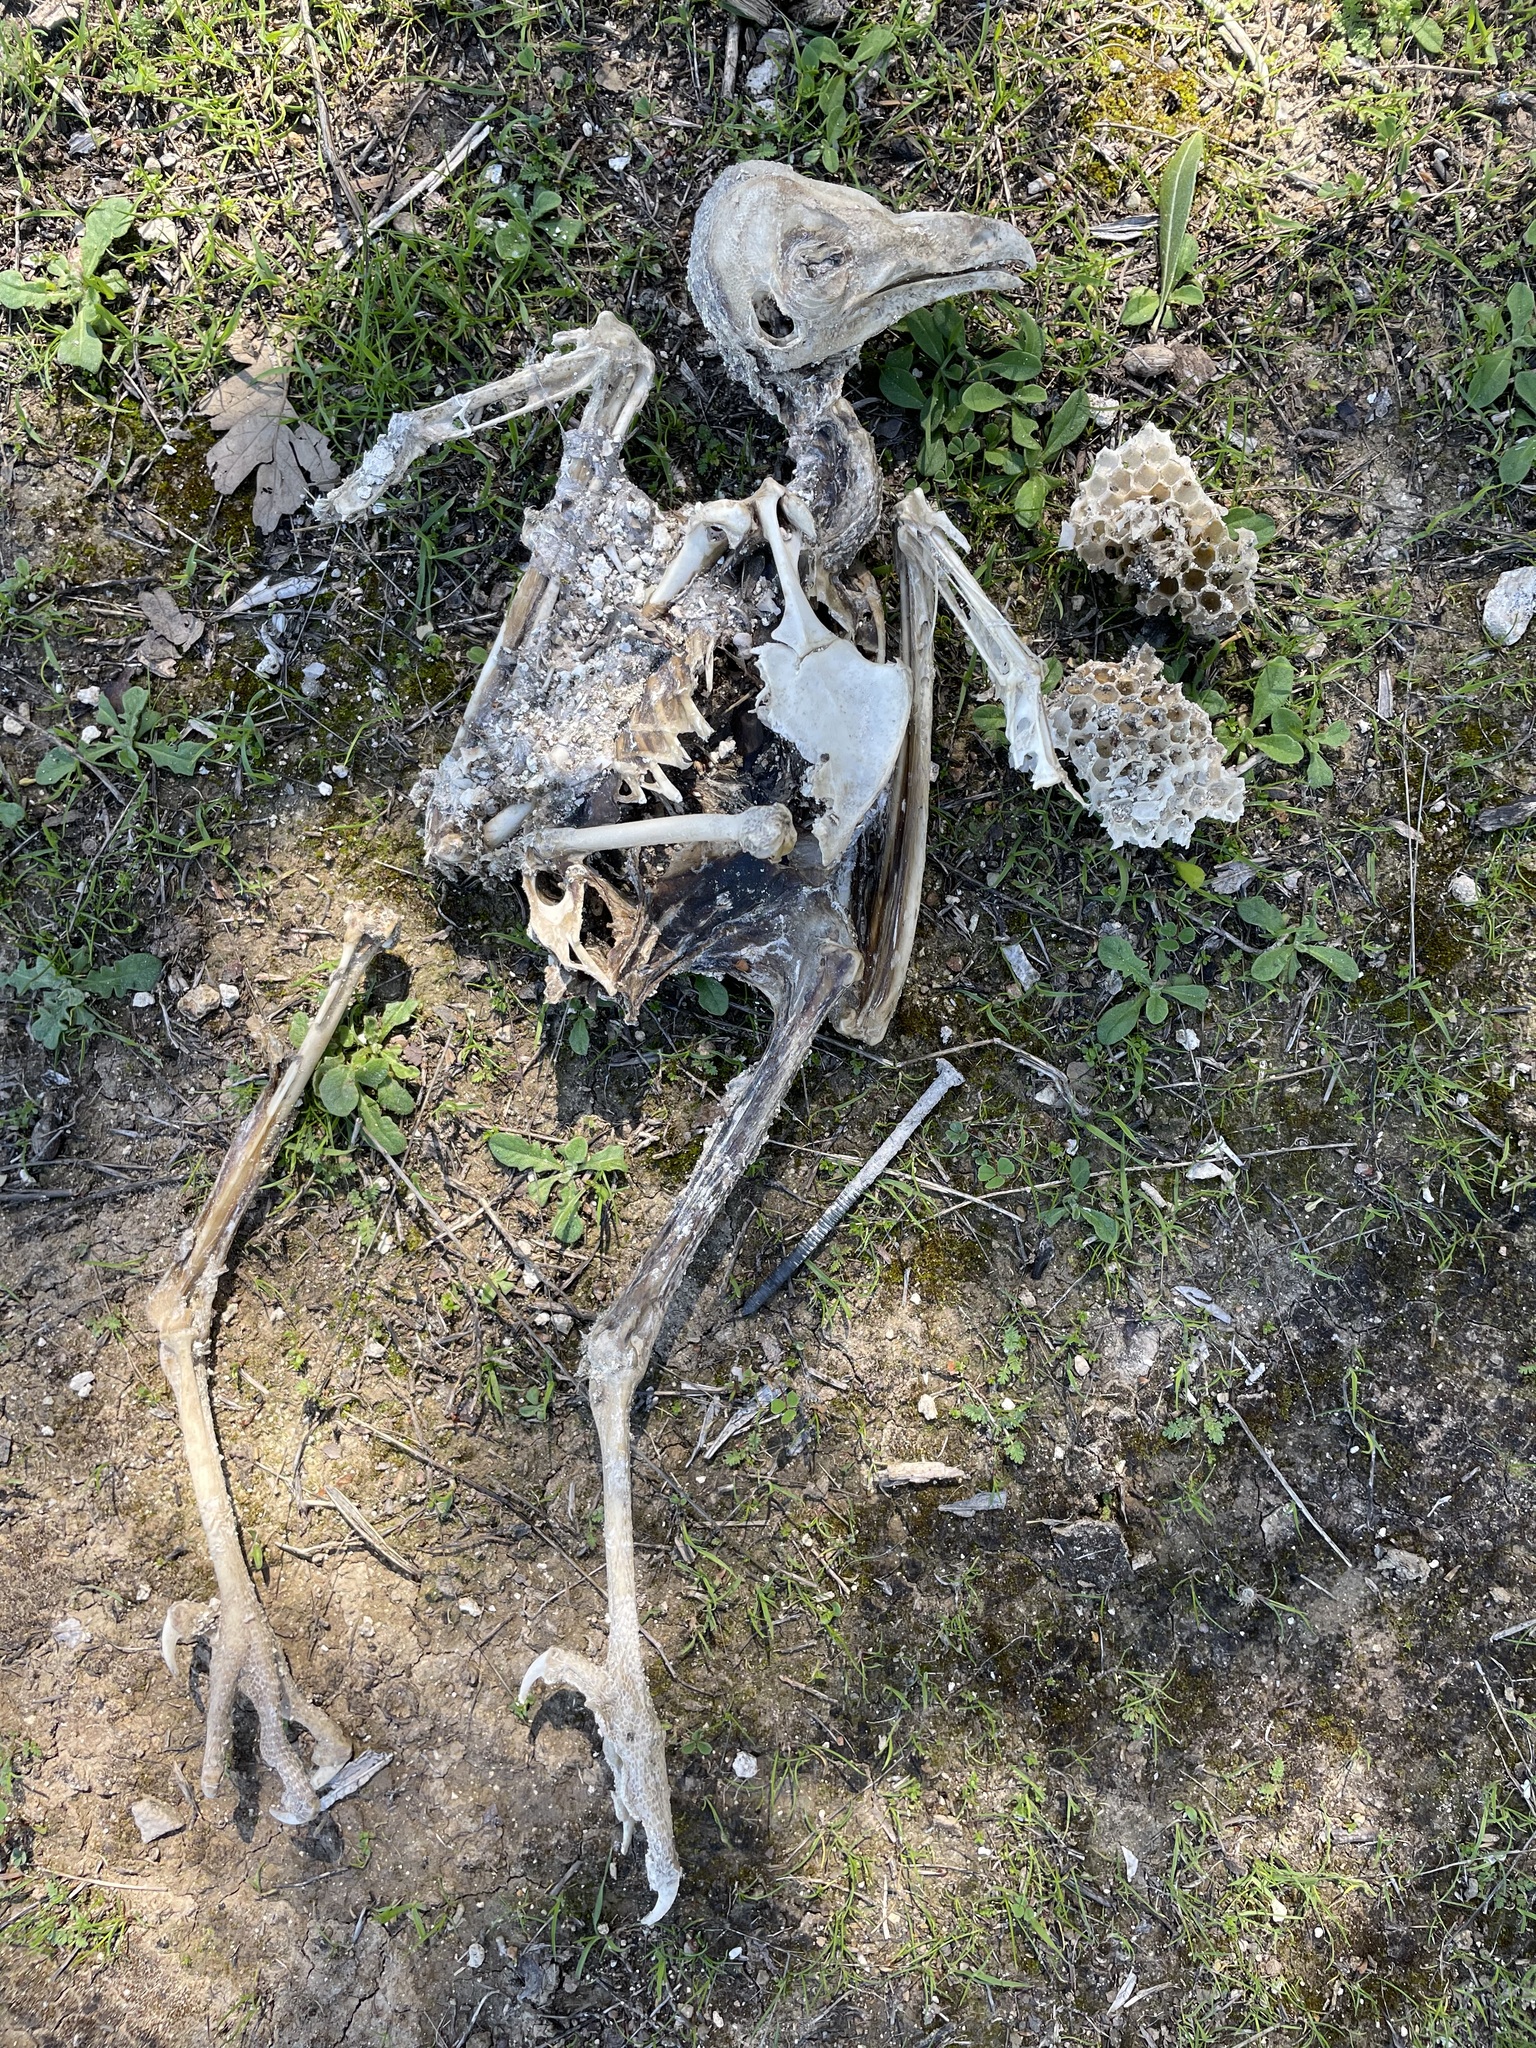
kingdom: Animalia
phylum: Chordata
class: Aves
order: Strigiformes
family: Tytonidae
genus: Tyto
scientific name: Tyto alba
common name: Barn owl
